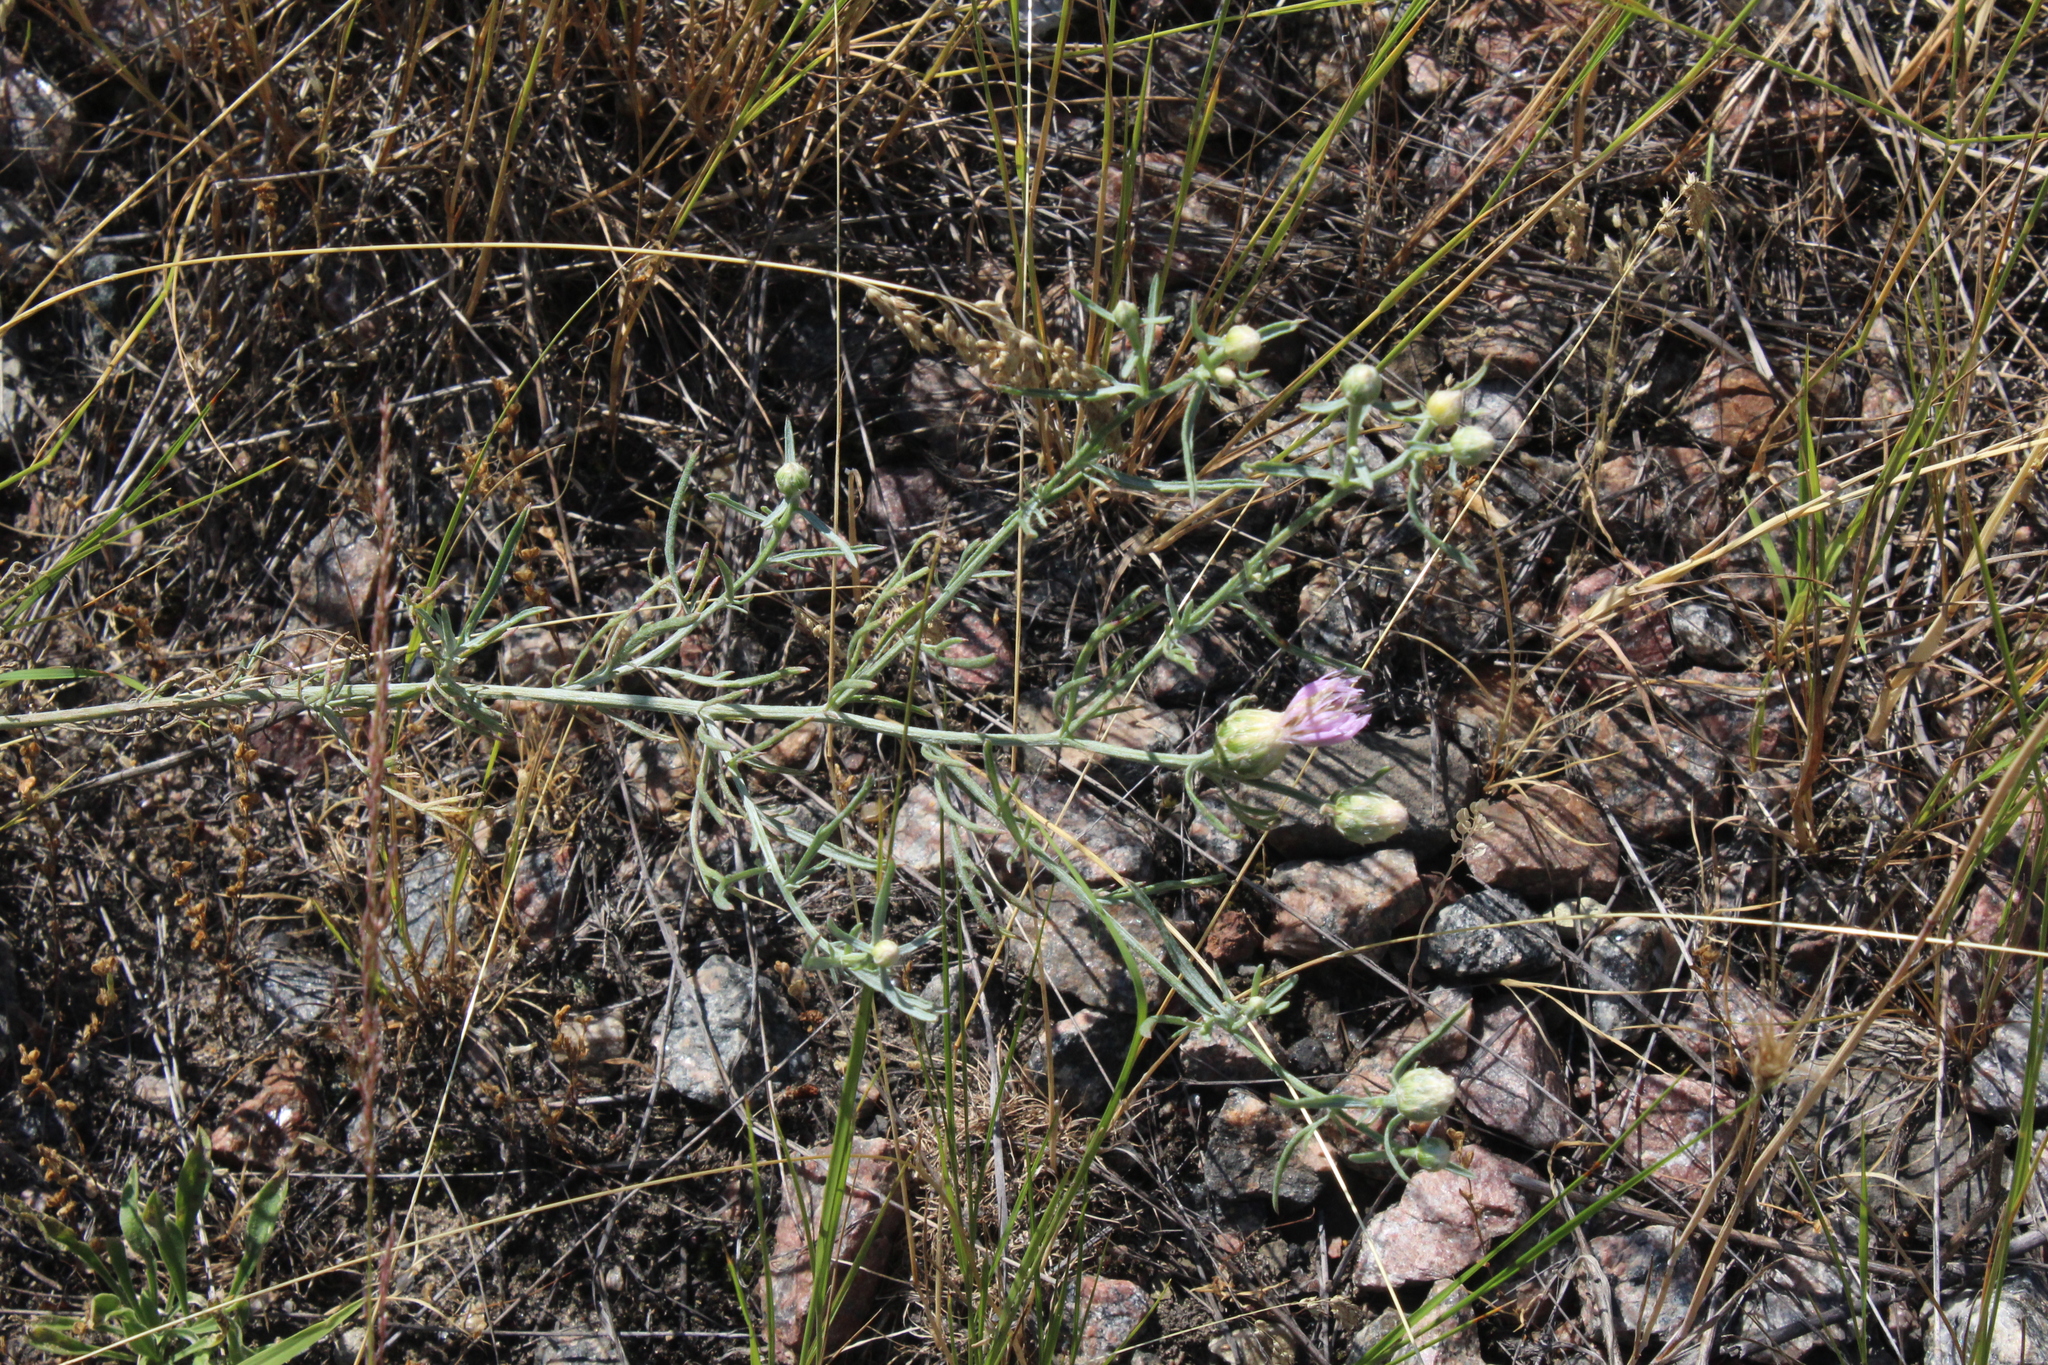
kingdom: Plantae
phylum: Tracheophyta
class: Magnoliopsida
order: Asterales
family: Asteraceae
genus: Centaurea
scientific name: Centaurea pineticola
